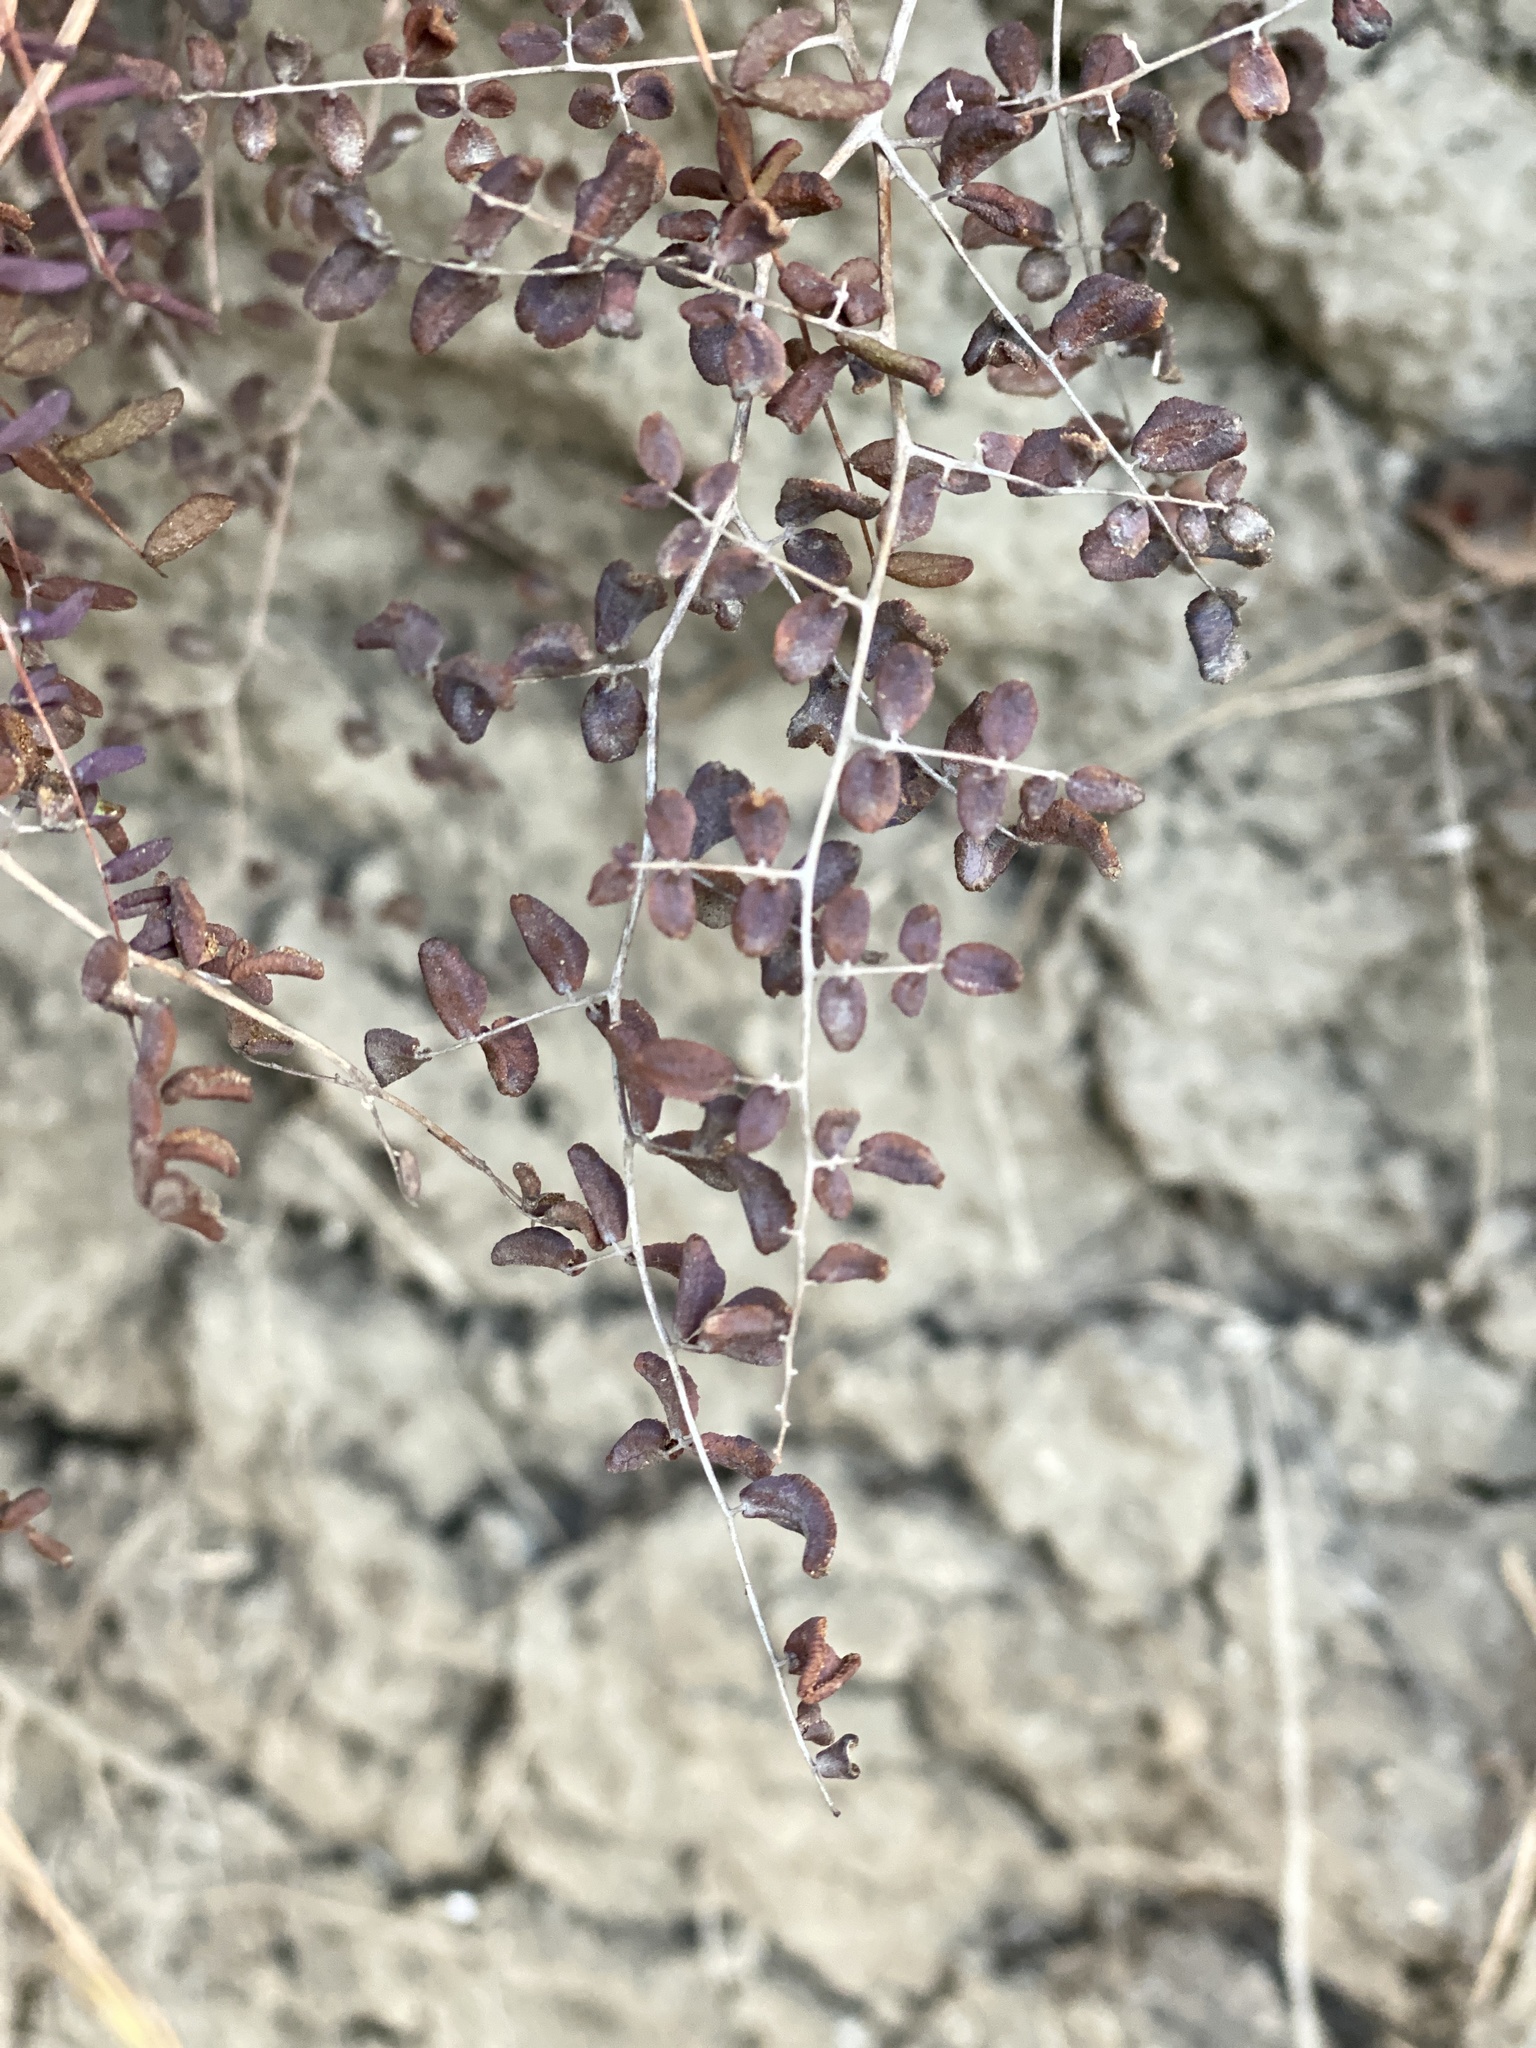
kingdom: Plantae
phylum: Tracheophyta
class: Polypodiopsida
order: Polypodiales
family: Pteridaceae
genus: Pellaea
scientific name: Pellaea andromedifolia
